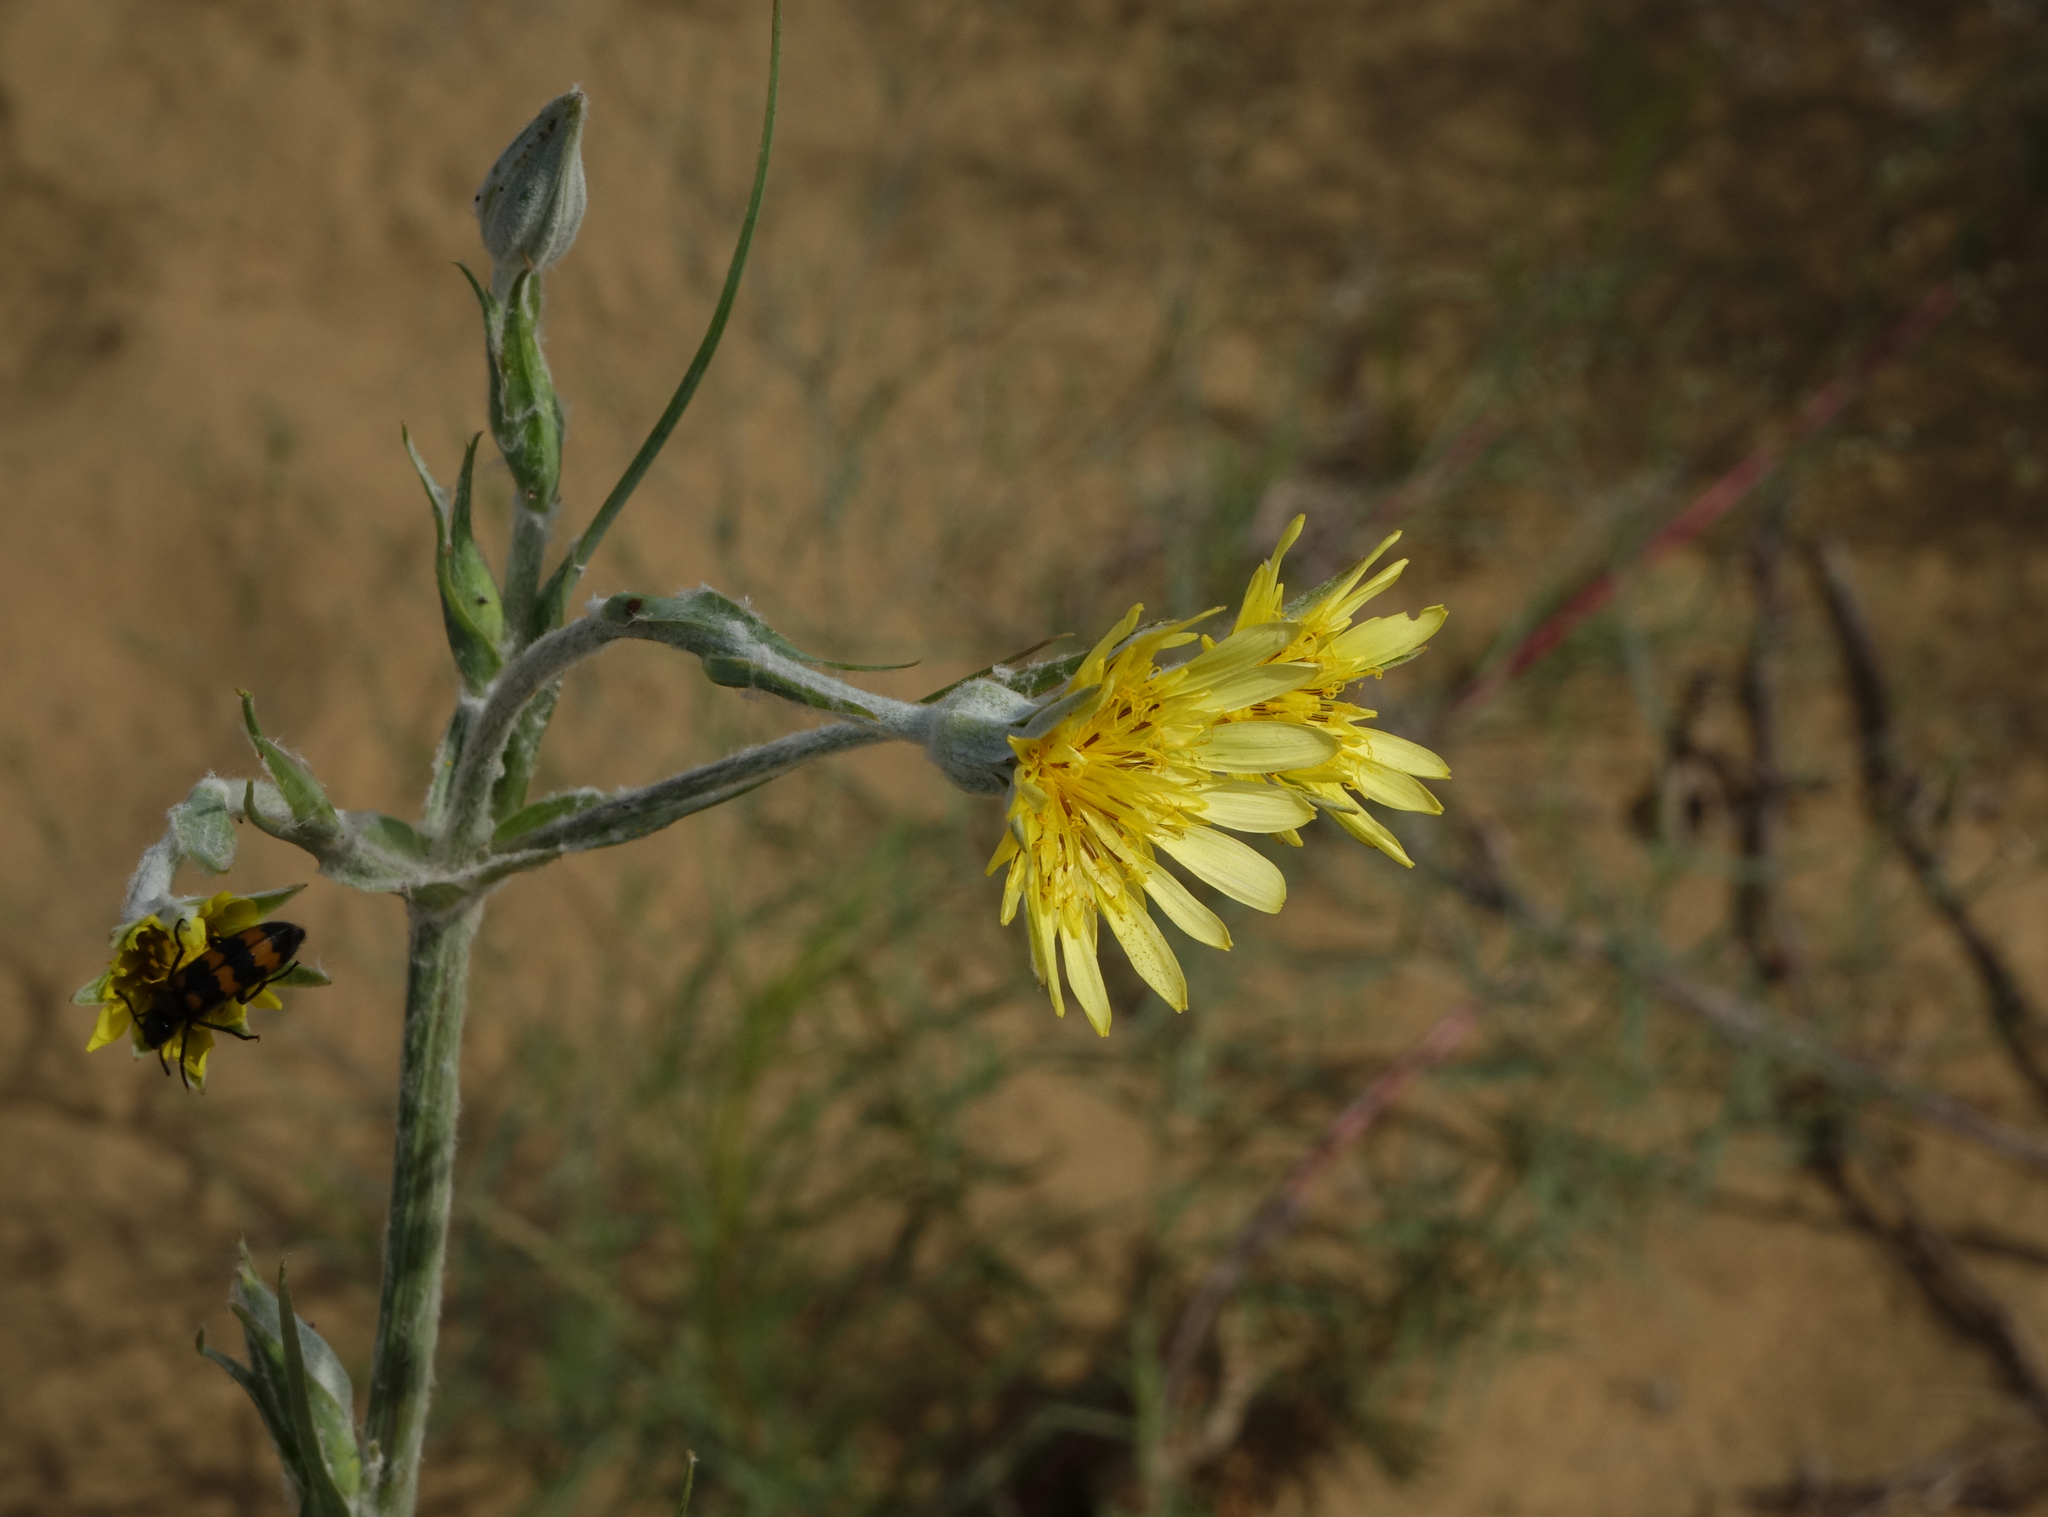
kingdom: Plantae
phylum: Tracheophyta
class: Magnoliopsida
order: Asterales
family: Asteraceae
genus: Tragopogon
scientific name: Tragopogon ruthenicus
